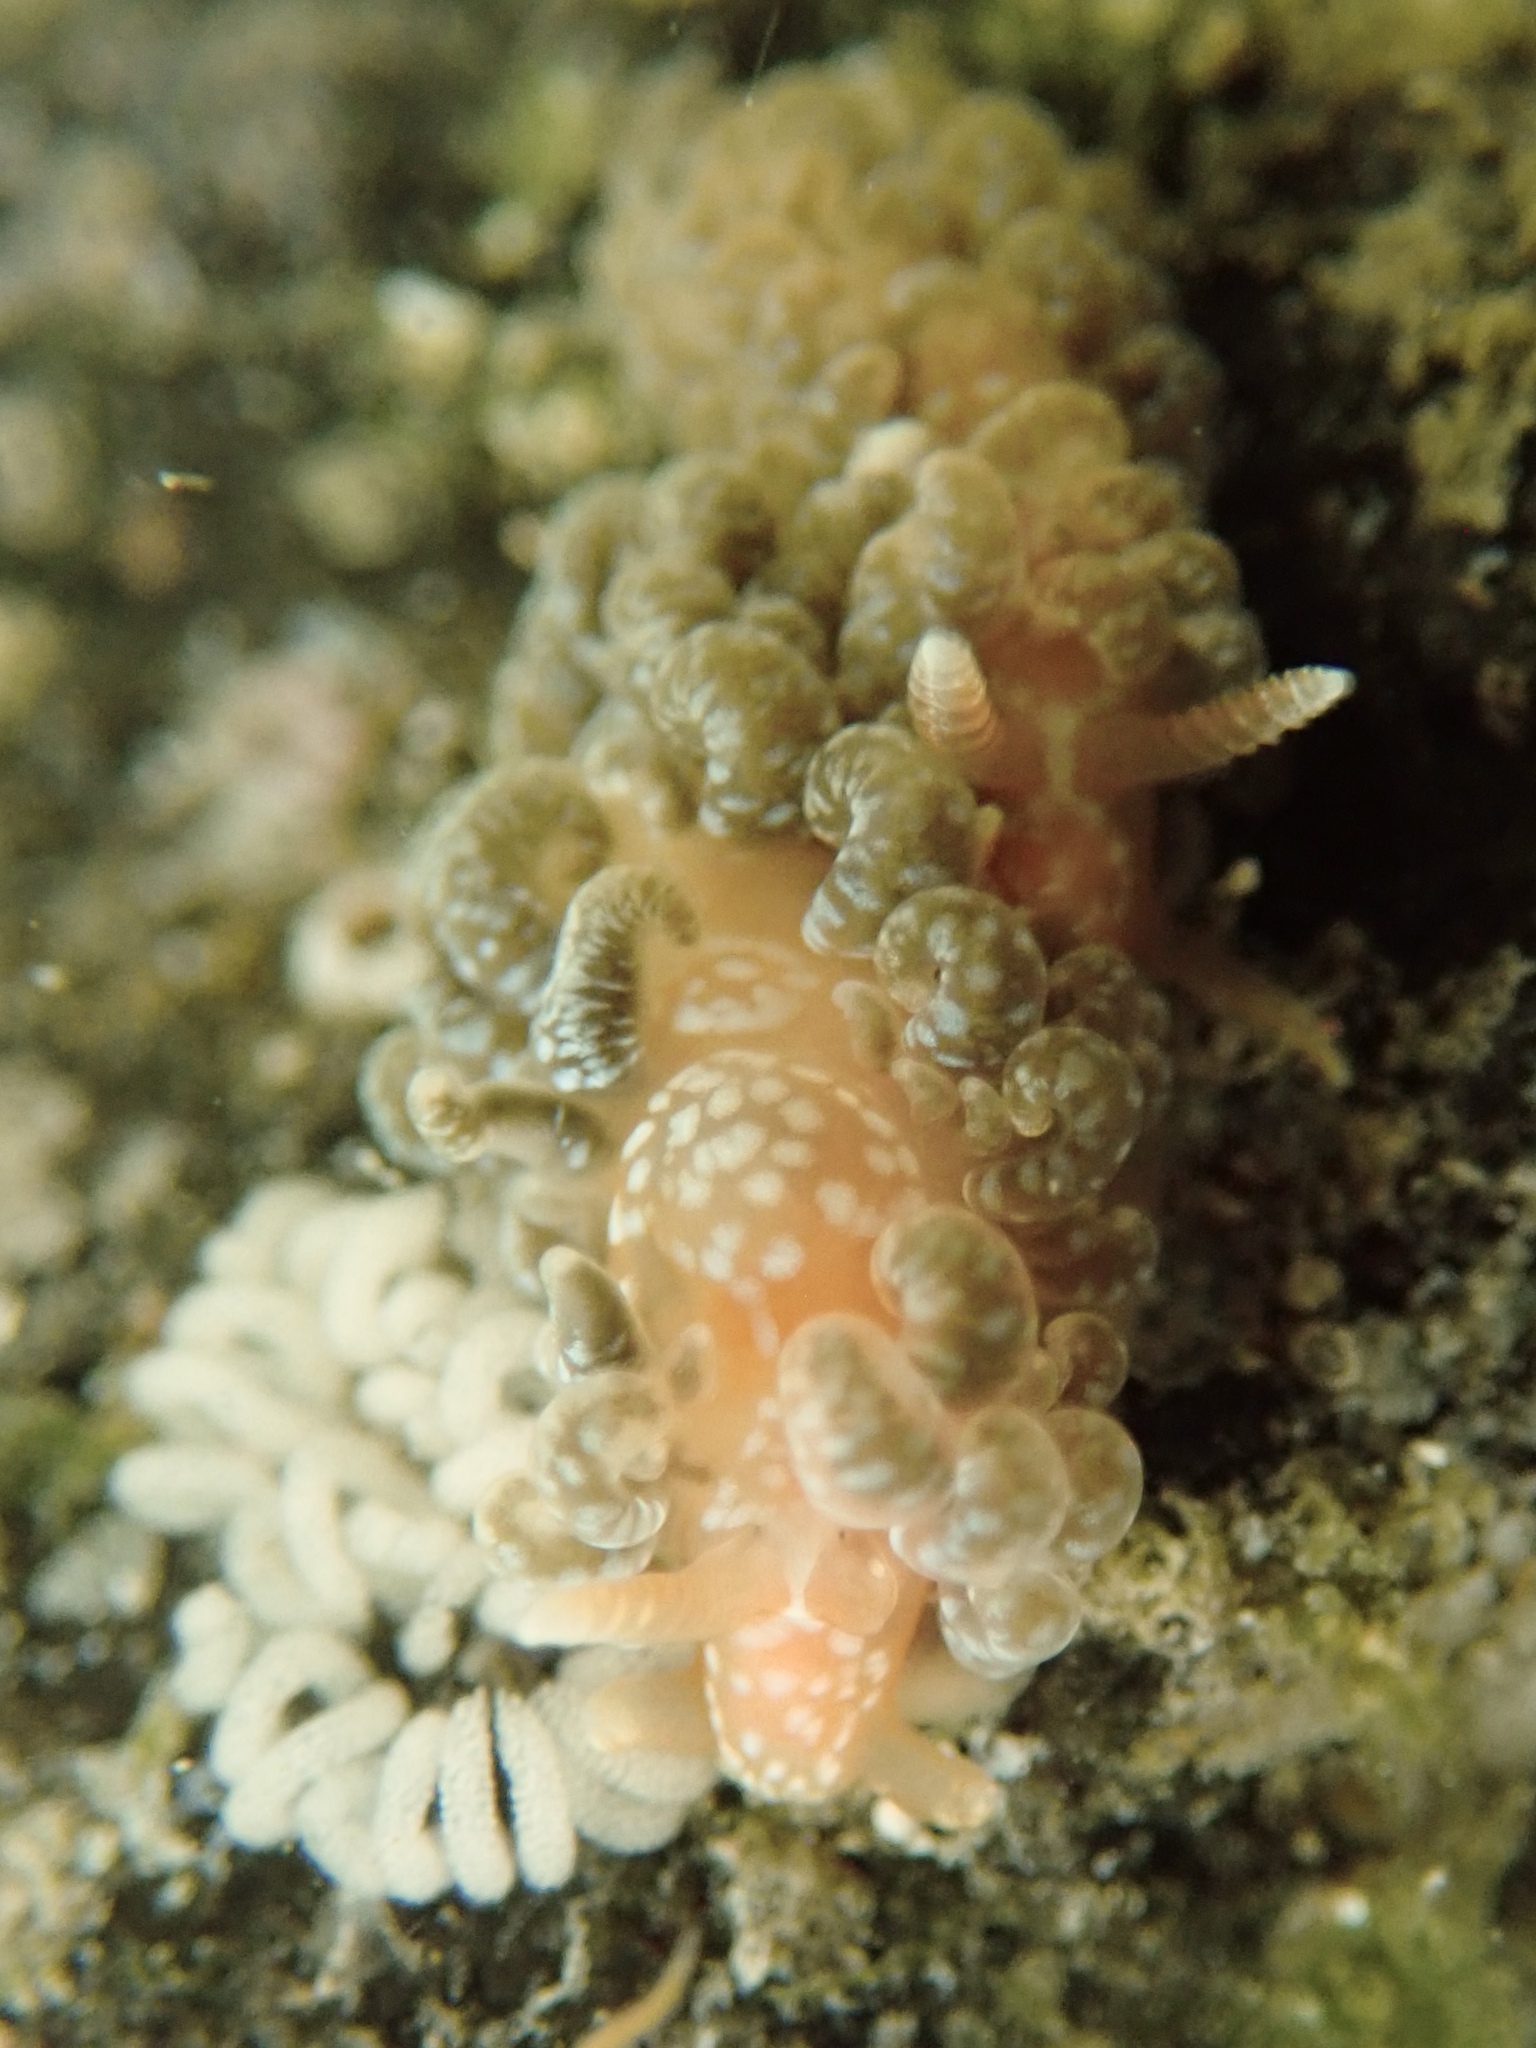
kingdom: Animalia
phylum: Mollusca
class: Gastropoda
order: Nudibranchia
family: Aeolidiidae
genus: Spurilla
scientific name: Spurilla braziliana
